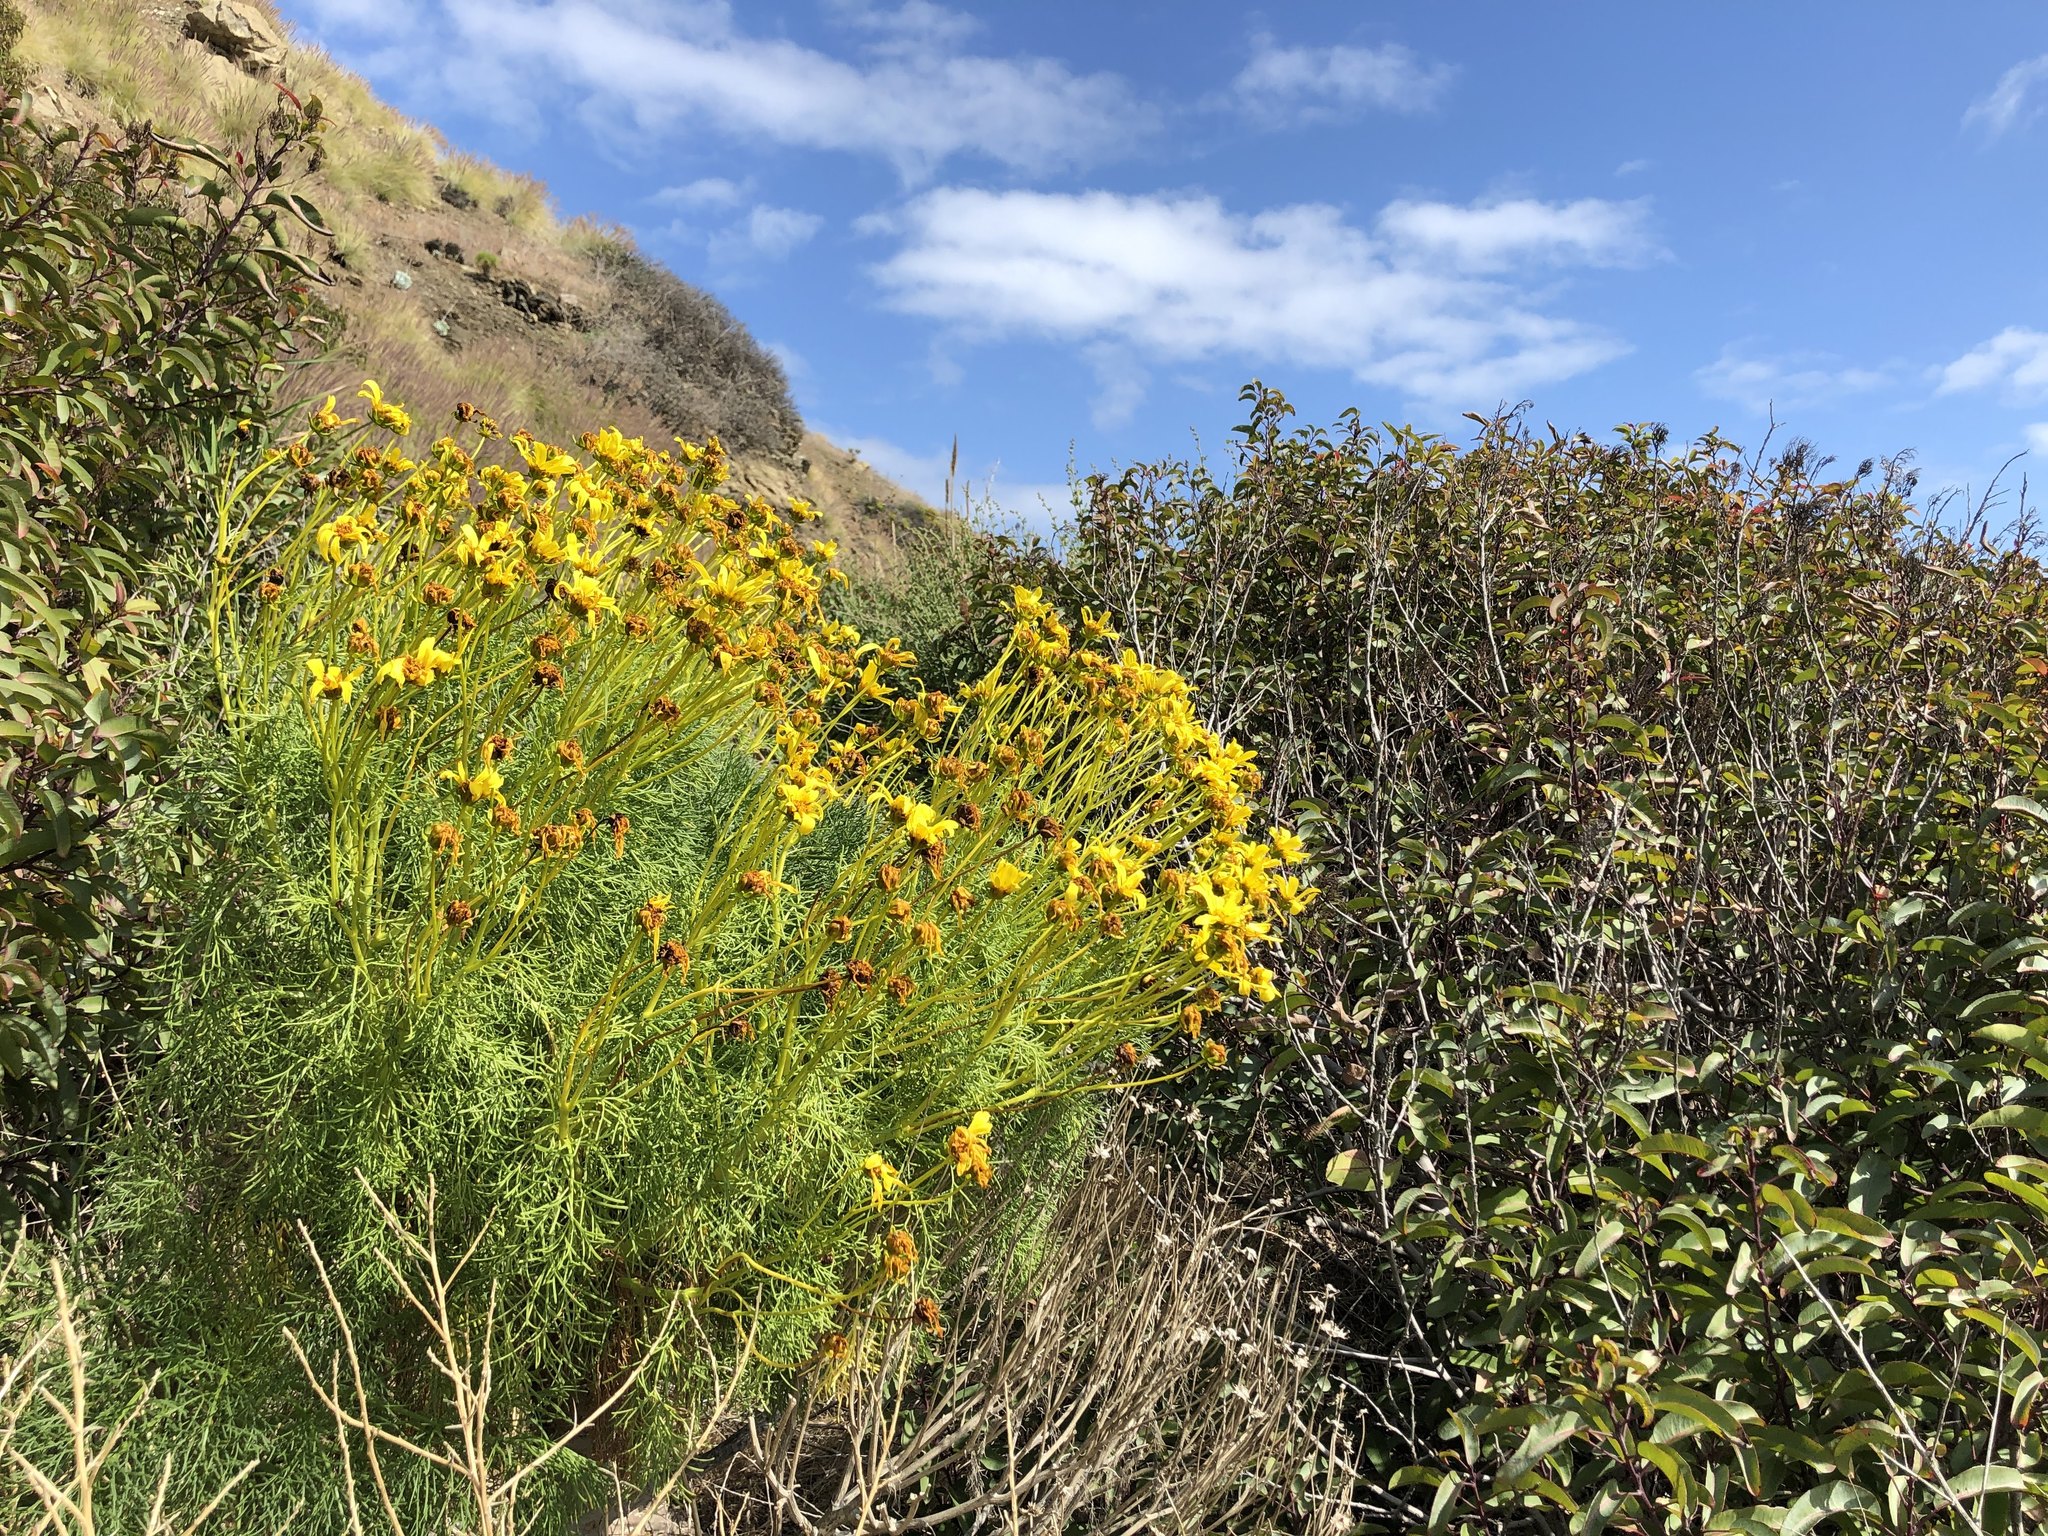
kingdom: Plantae
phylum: Tracheophyta
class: Magnoliopsida
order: Asterales
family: Asteraceae
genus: Coreopsis
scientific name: Coreopsis gigantea
